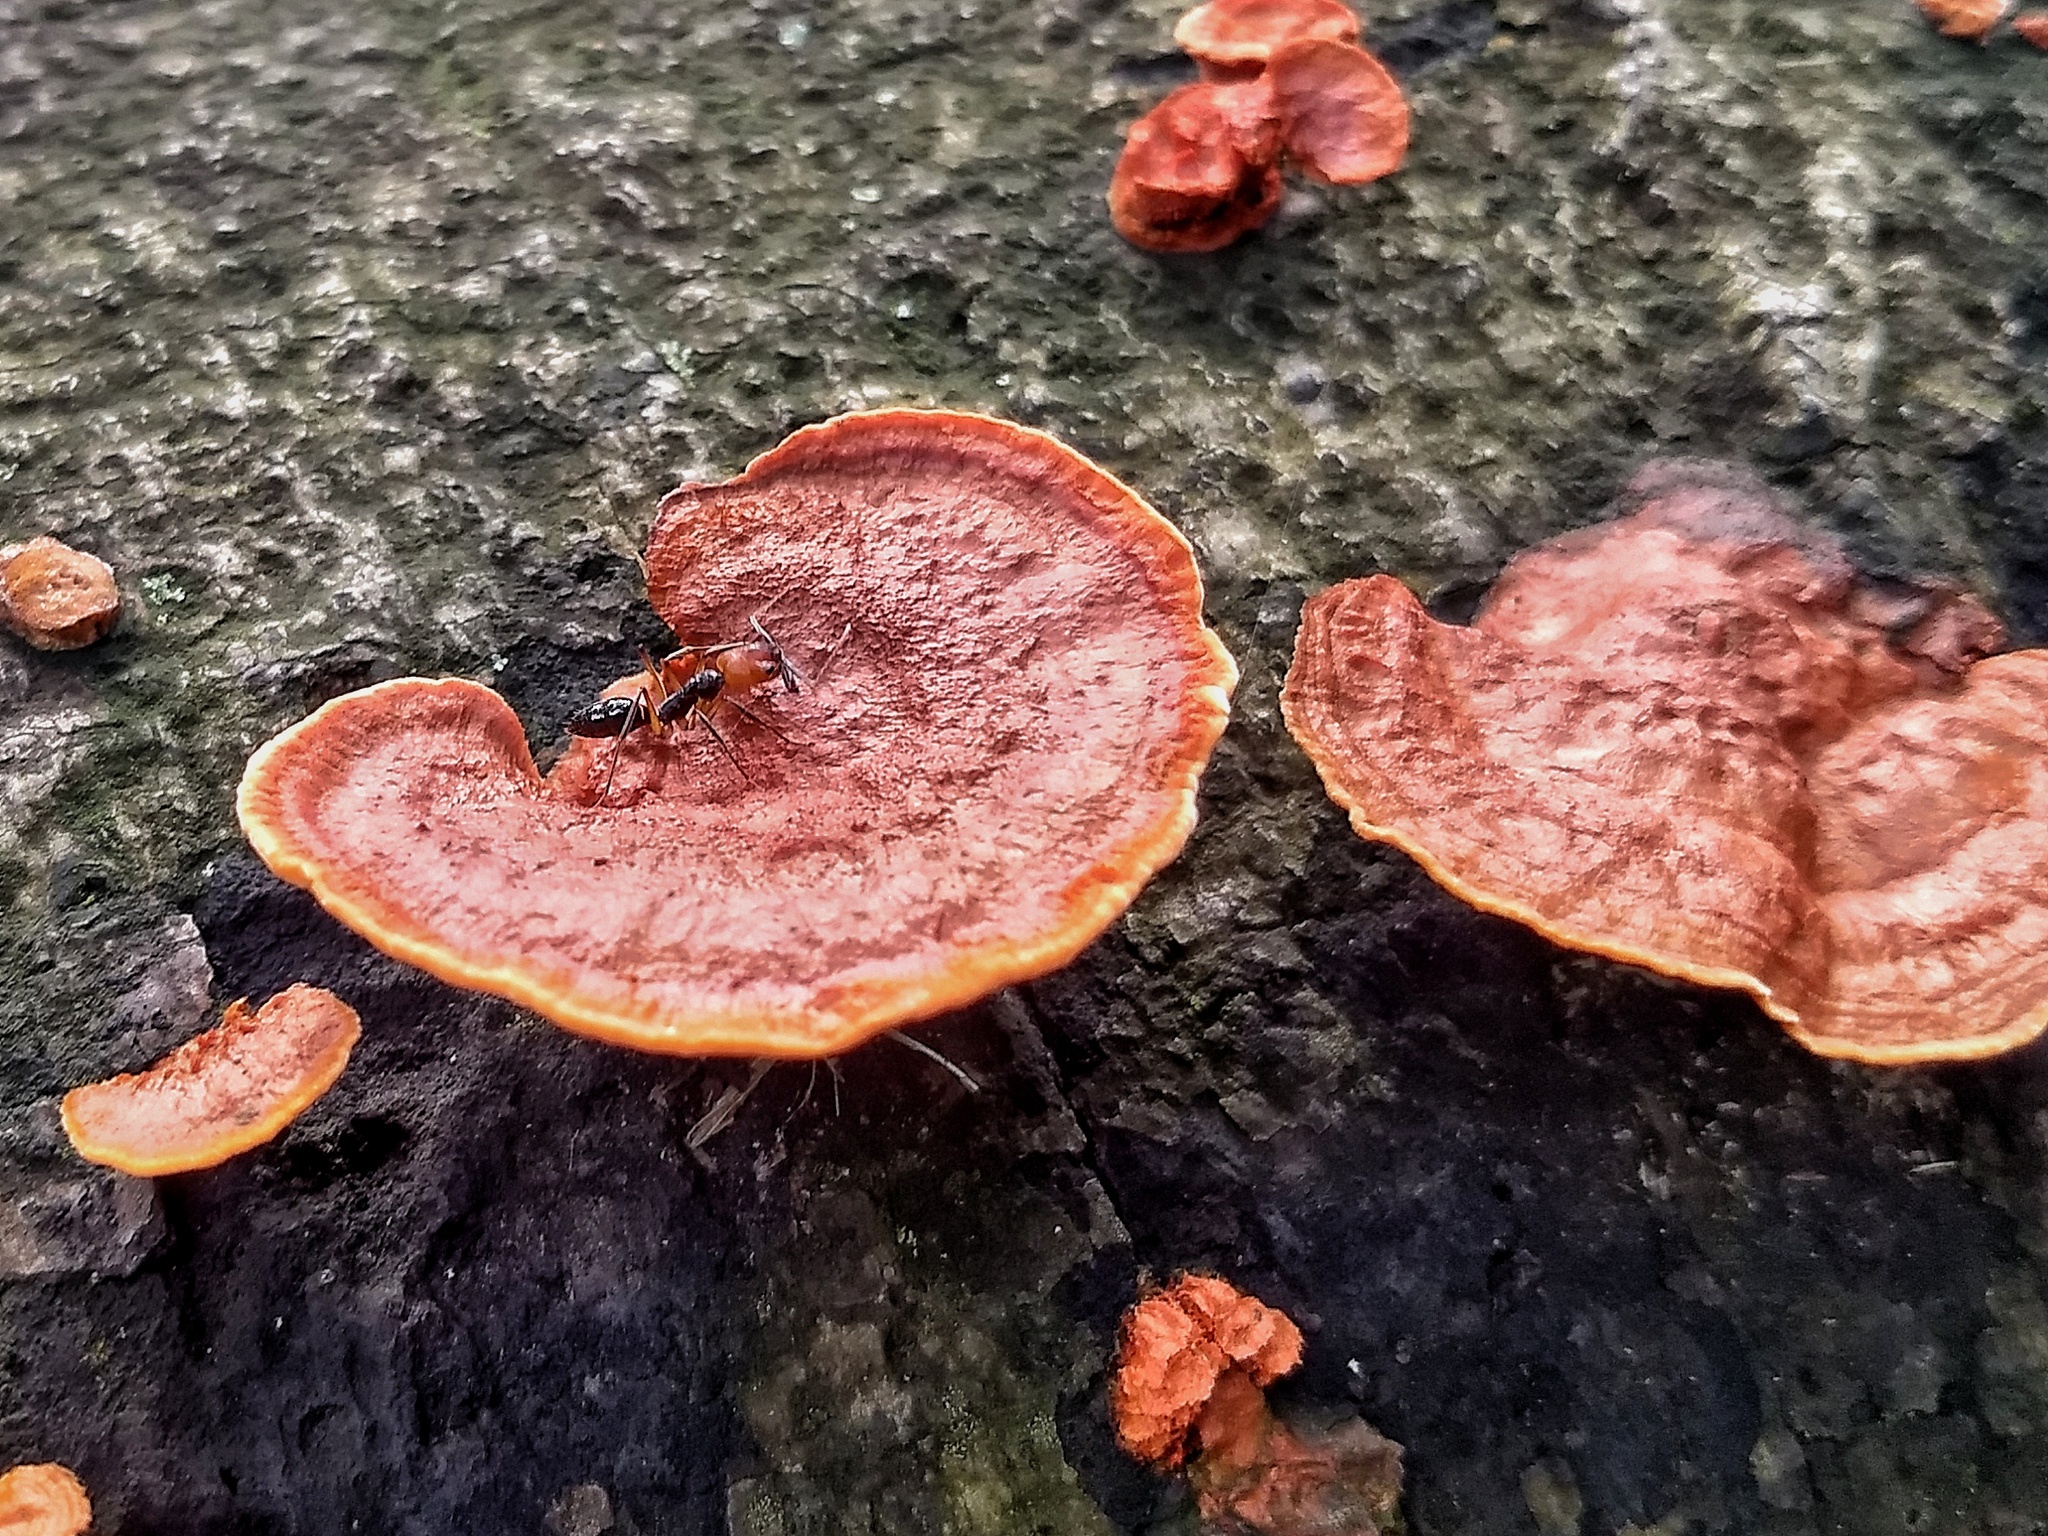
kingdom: Fungi
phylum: Basidiomycota
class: Agaricomycetes
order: Polyporales
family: Polyporaceae
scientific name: Polyporaceae
